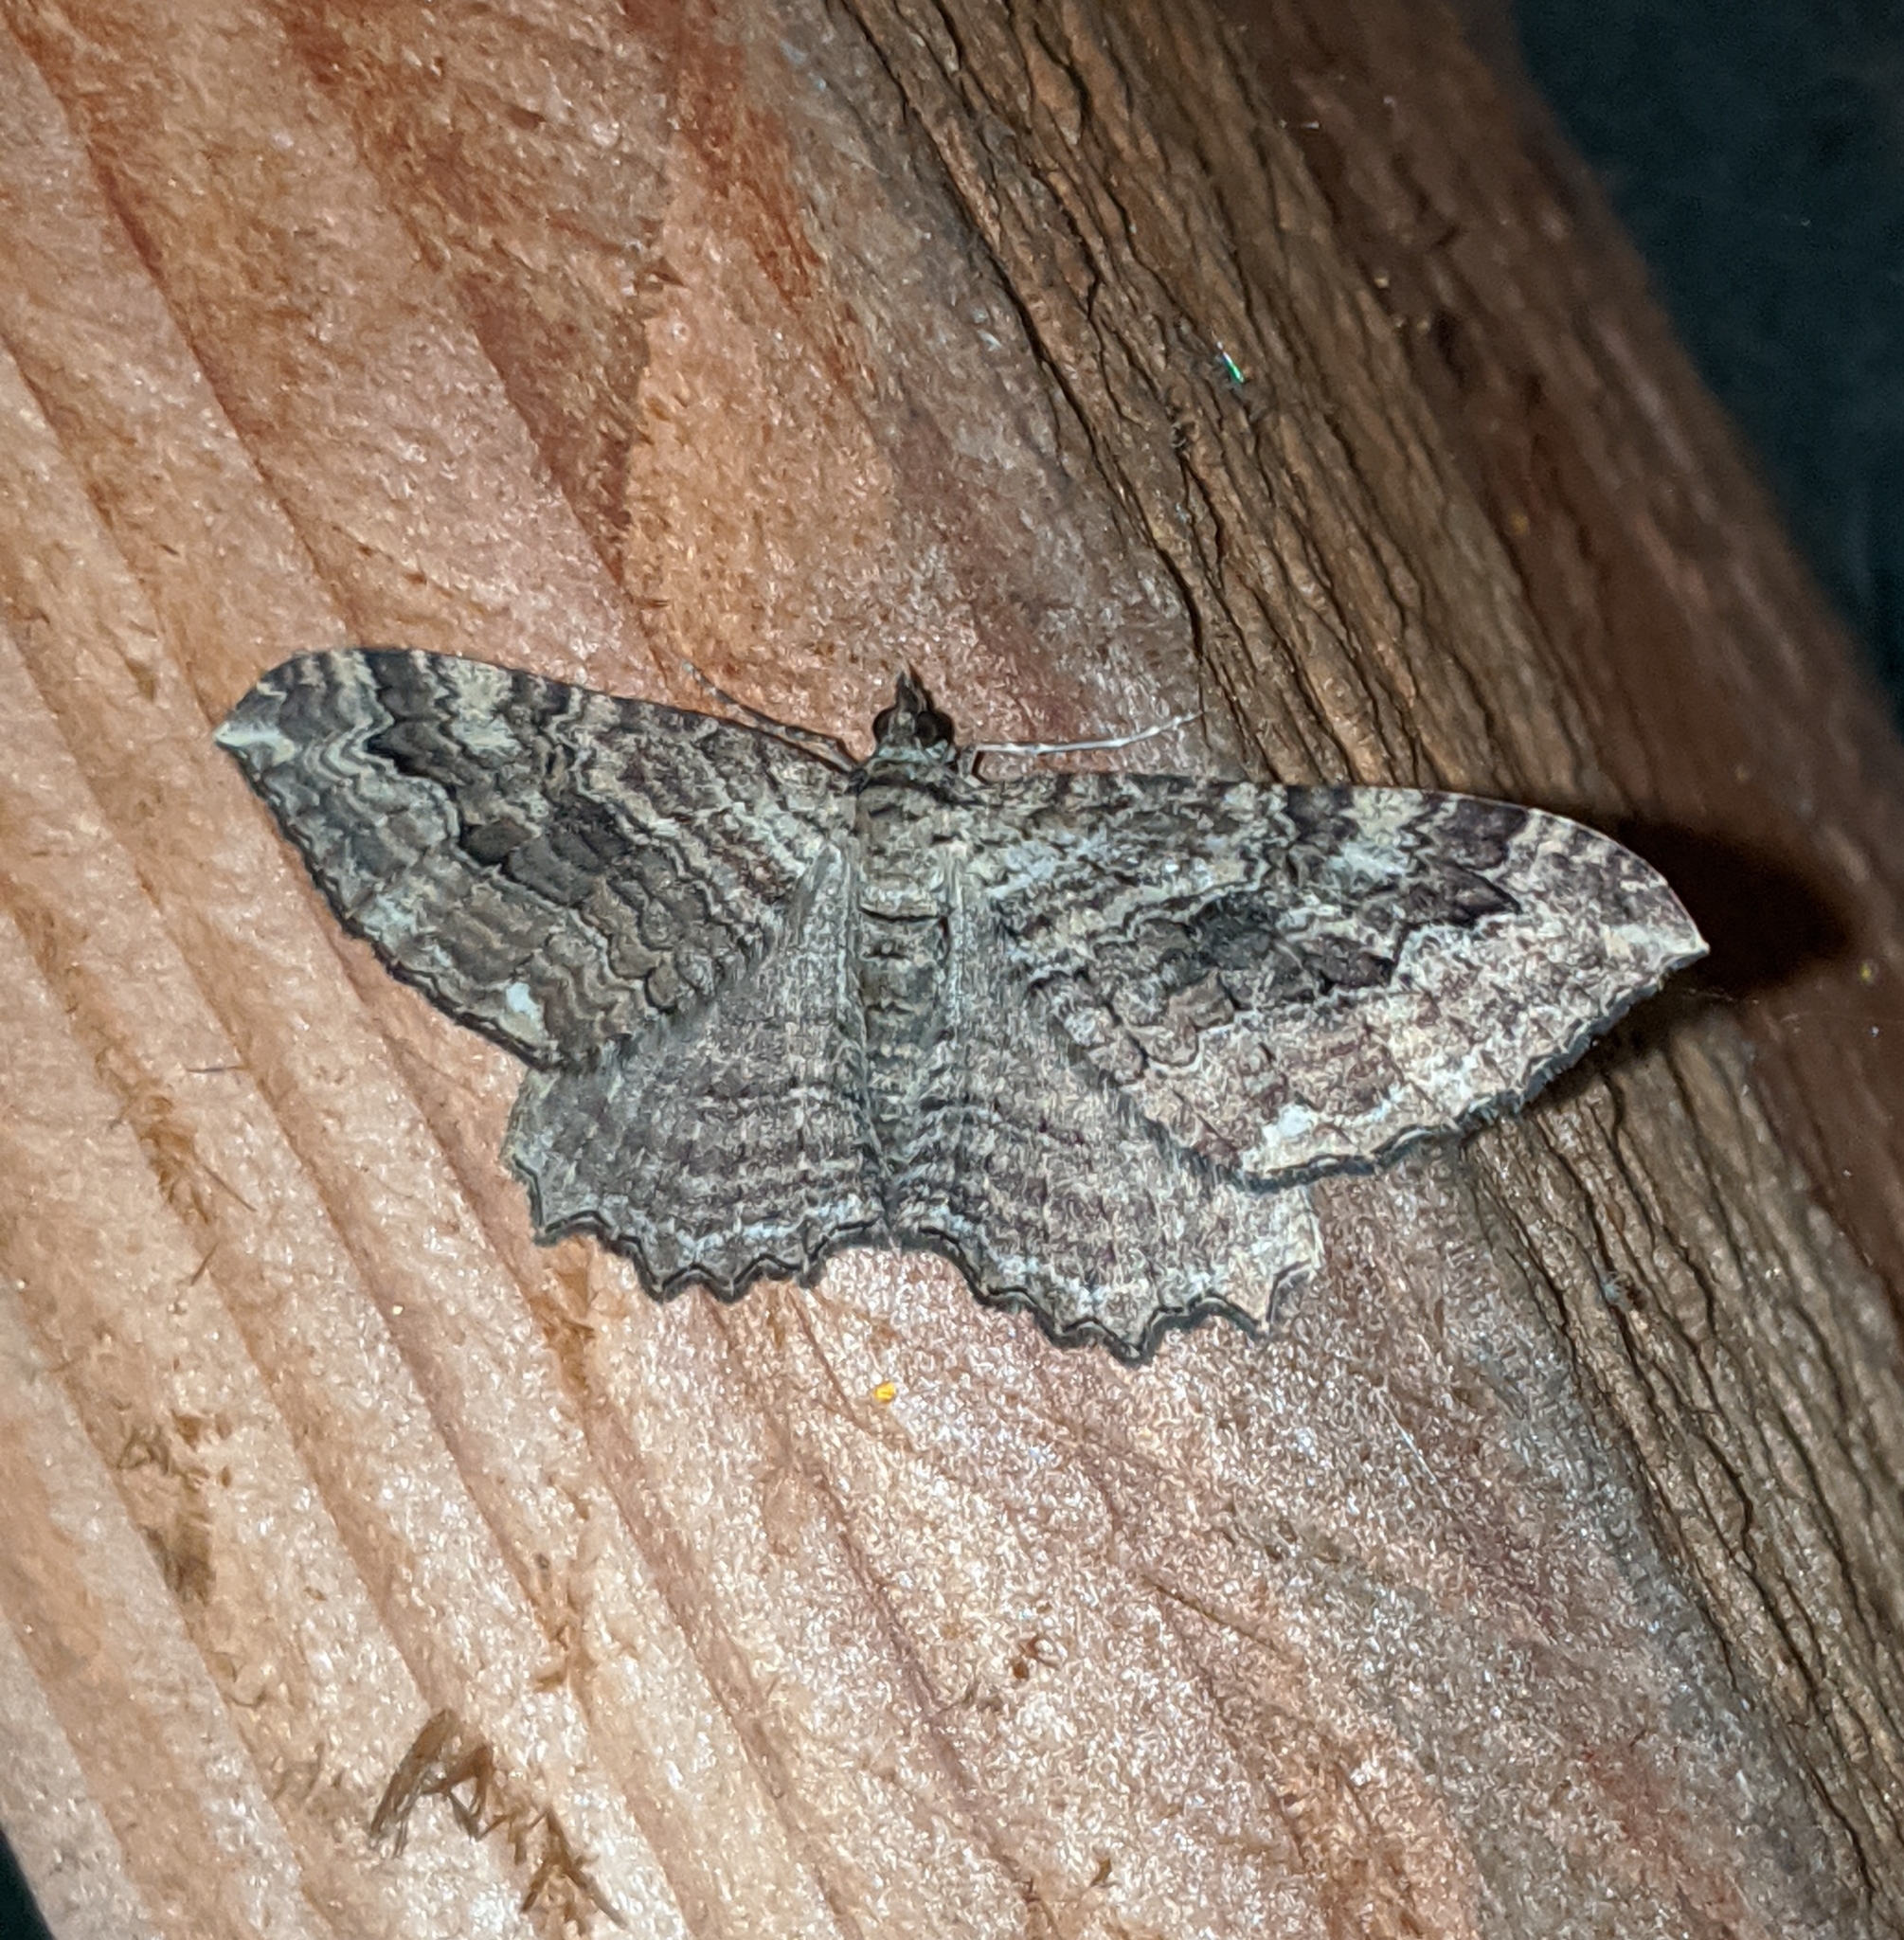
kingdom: Animalia
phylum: Arthropoda
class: Insecta
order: Lepidoptera
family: Geometridae
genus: Rheumaptera
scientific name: Rheumaptera
